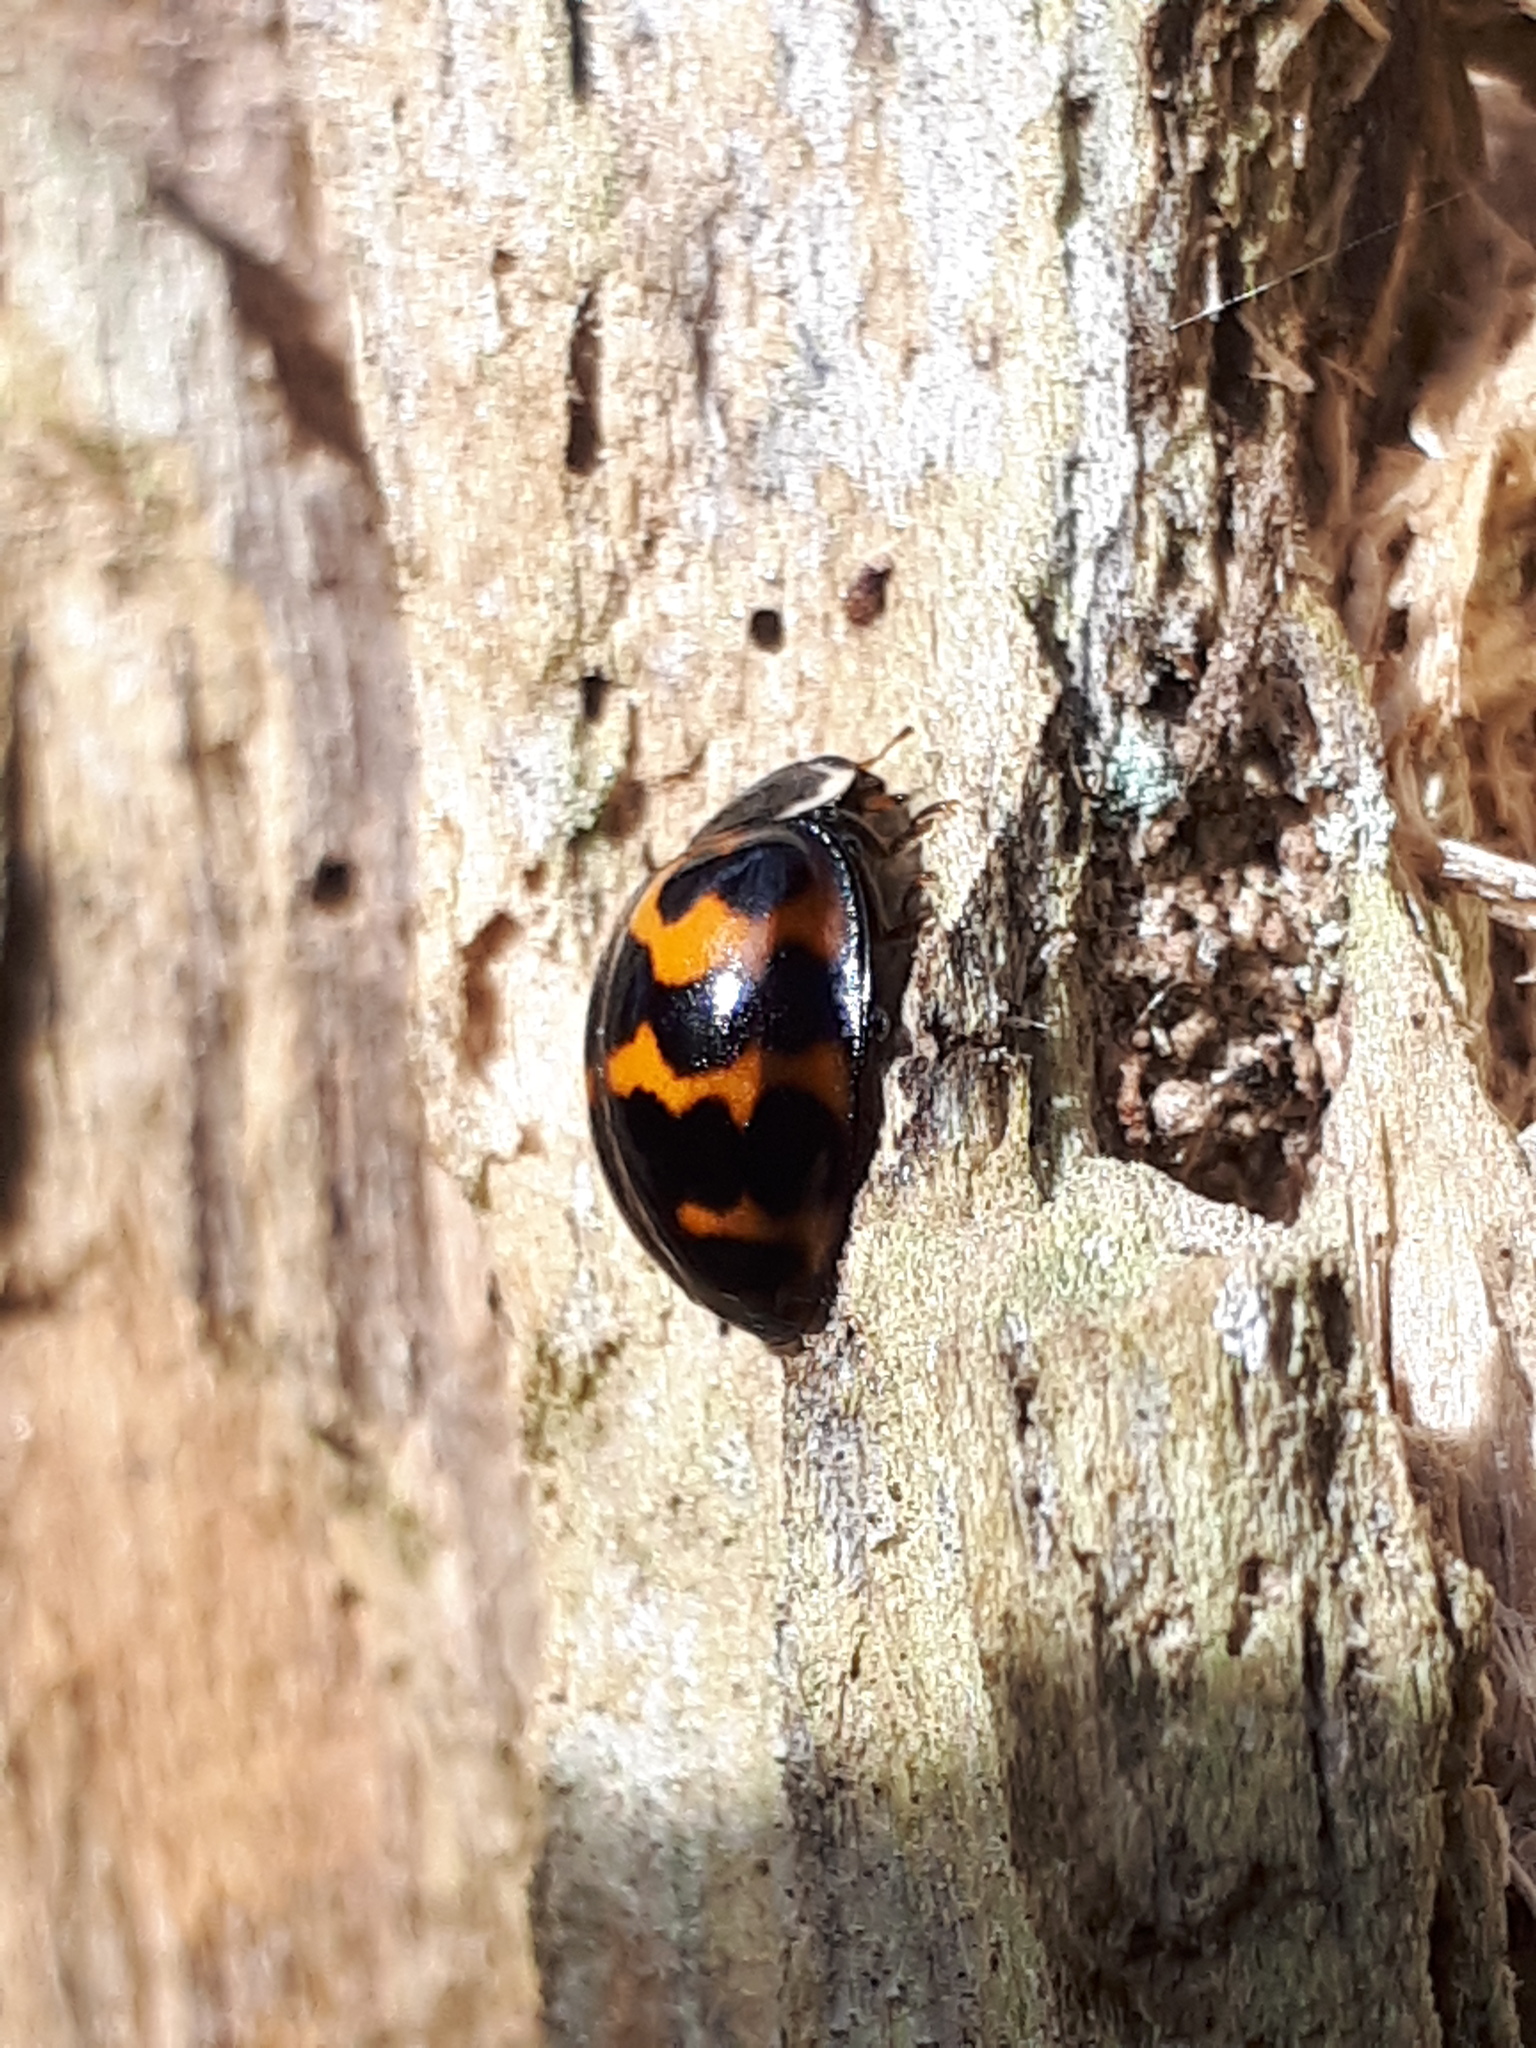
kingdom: Animalia
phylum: Arthropoda
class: Insecta
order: Coleoptera
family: Coccinellidae
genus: Harmonia
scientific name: Harmonia axyridis
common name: Harlequin ladybird
